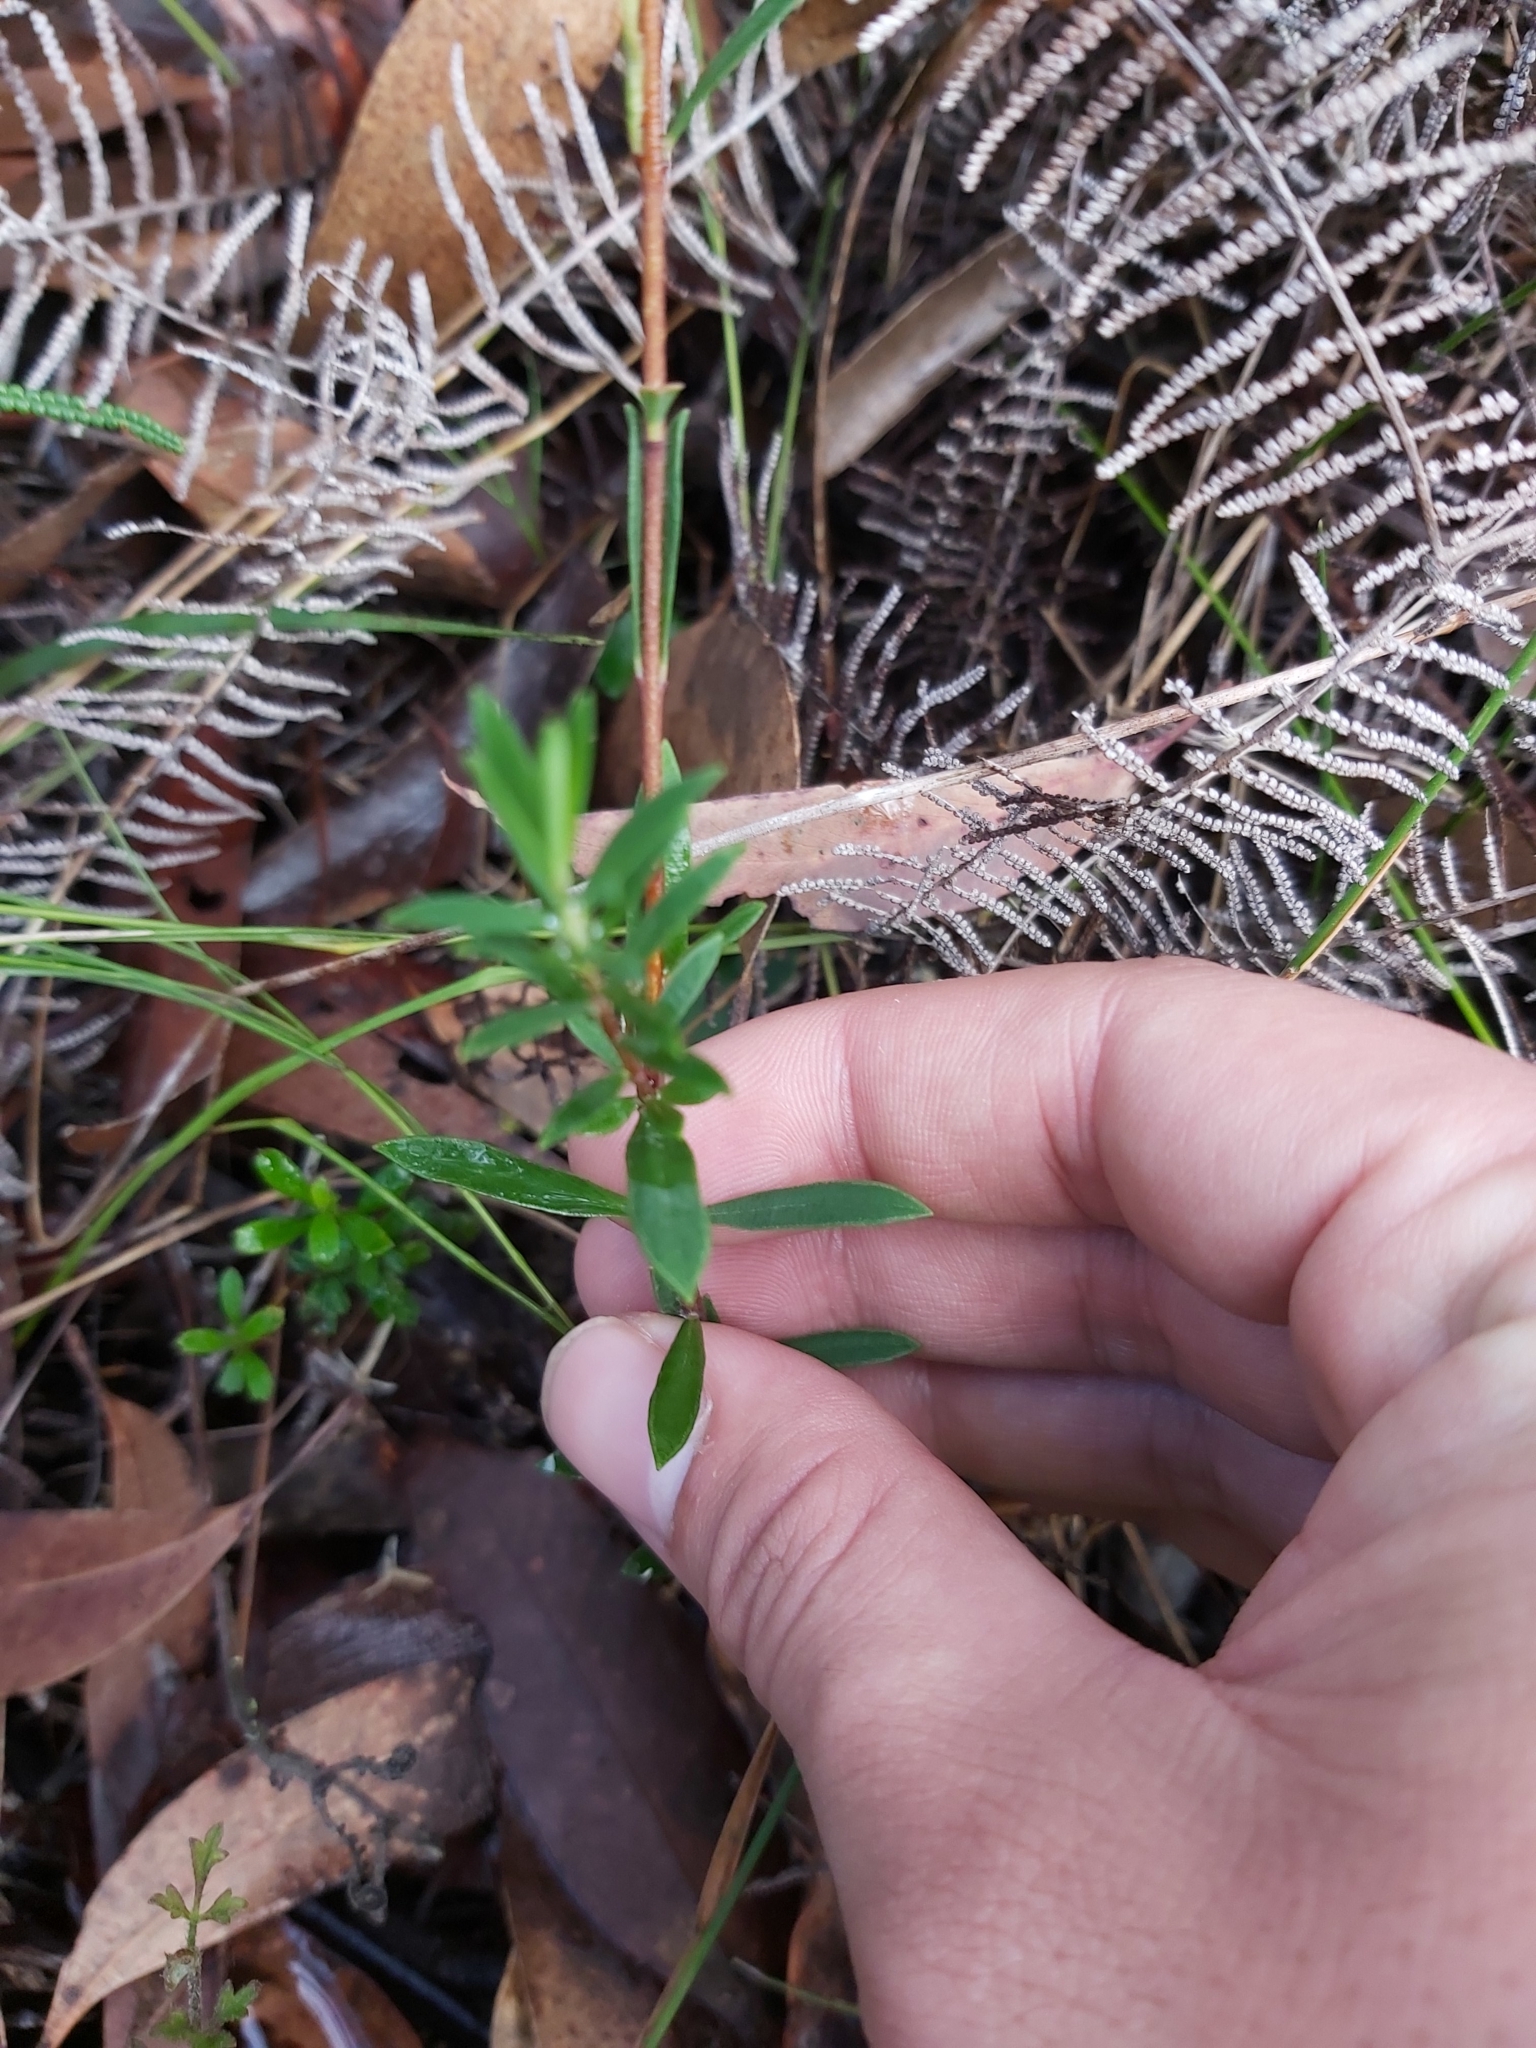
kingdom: Plantae
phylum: Tracheophyta
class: Magnoliopsida
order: Malvales
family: Thymelaeaceae
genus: Pimelea
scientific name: Pimelea linifolia
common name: Queen-of-the-bush
